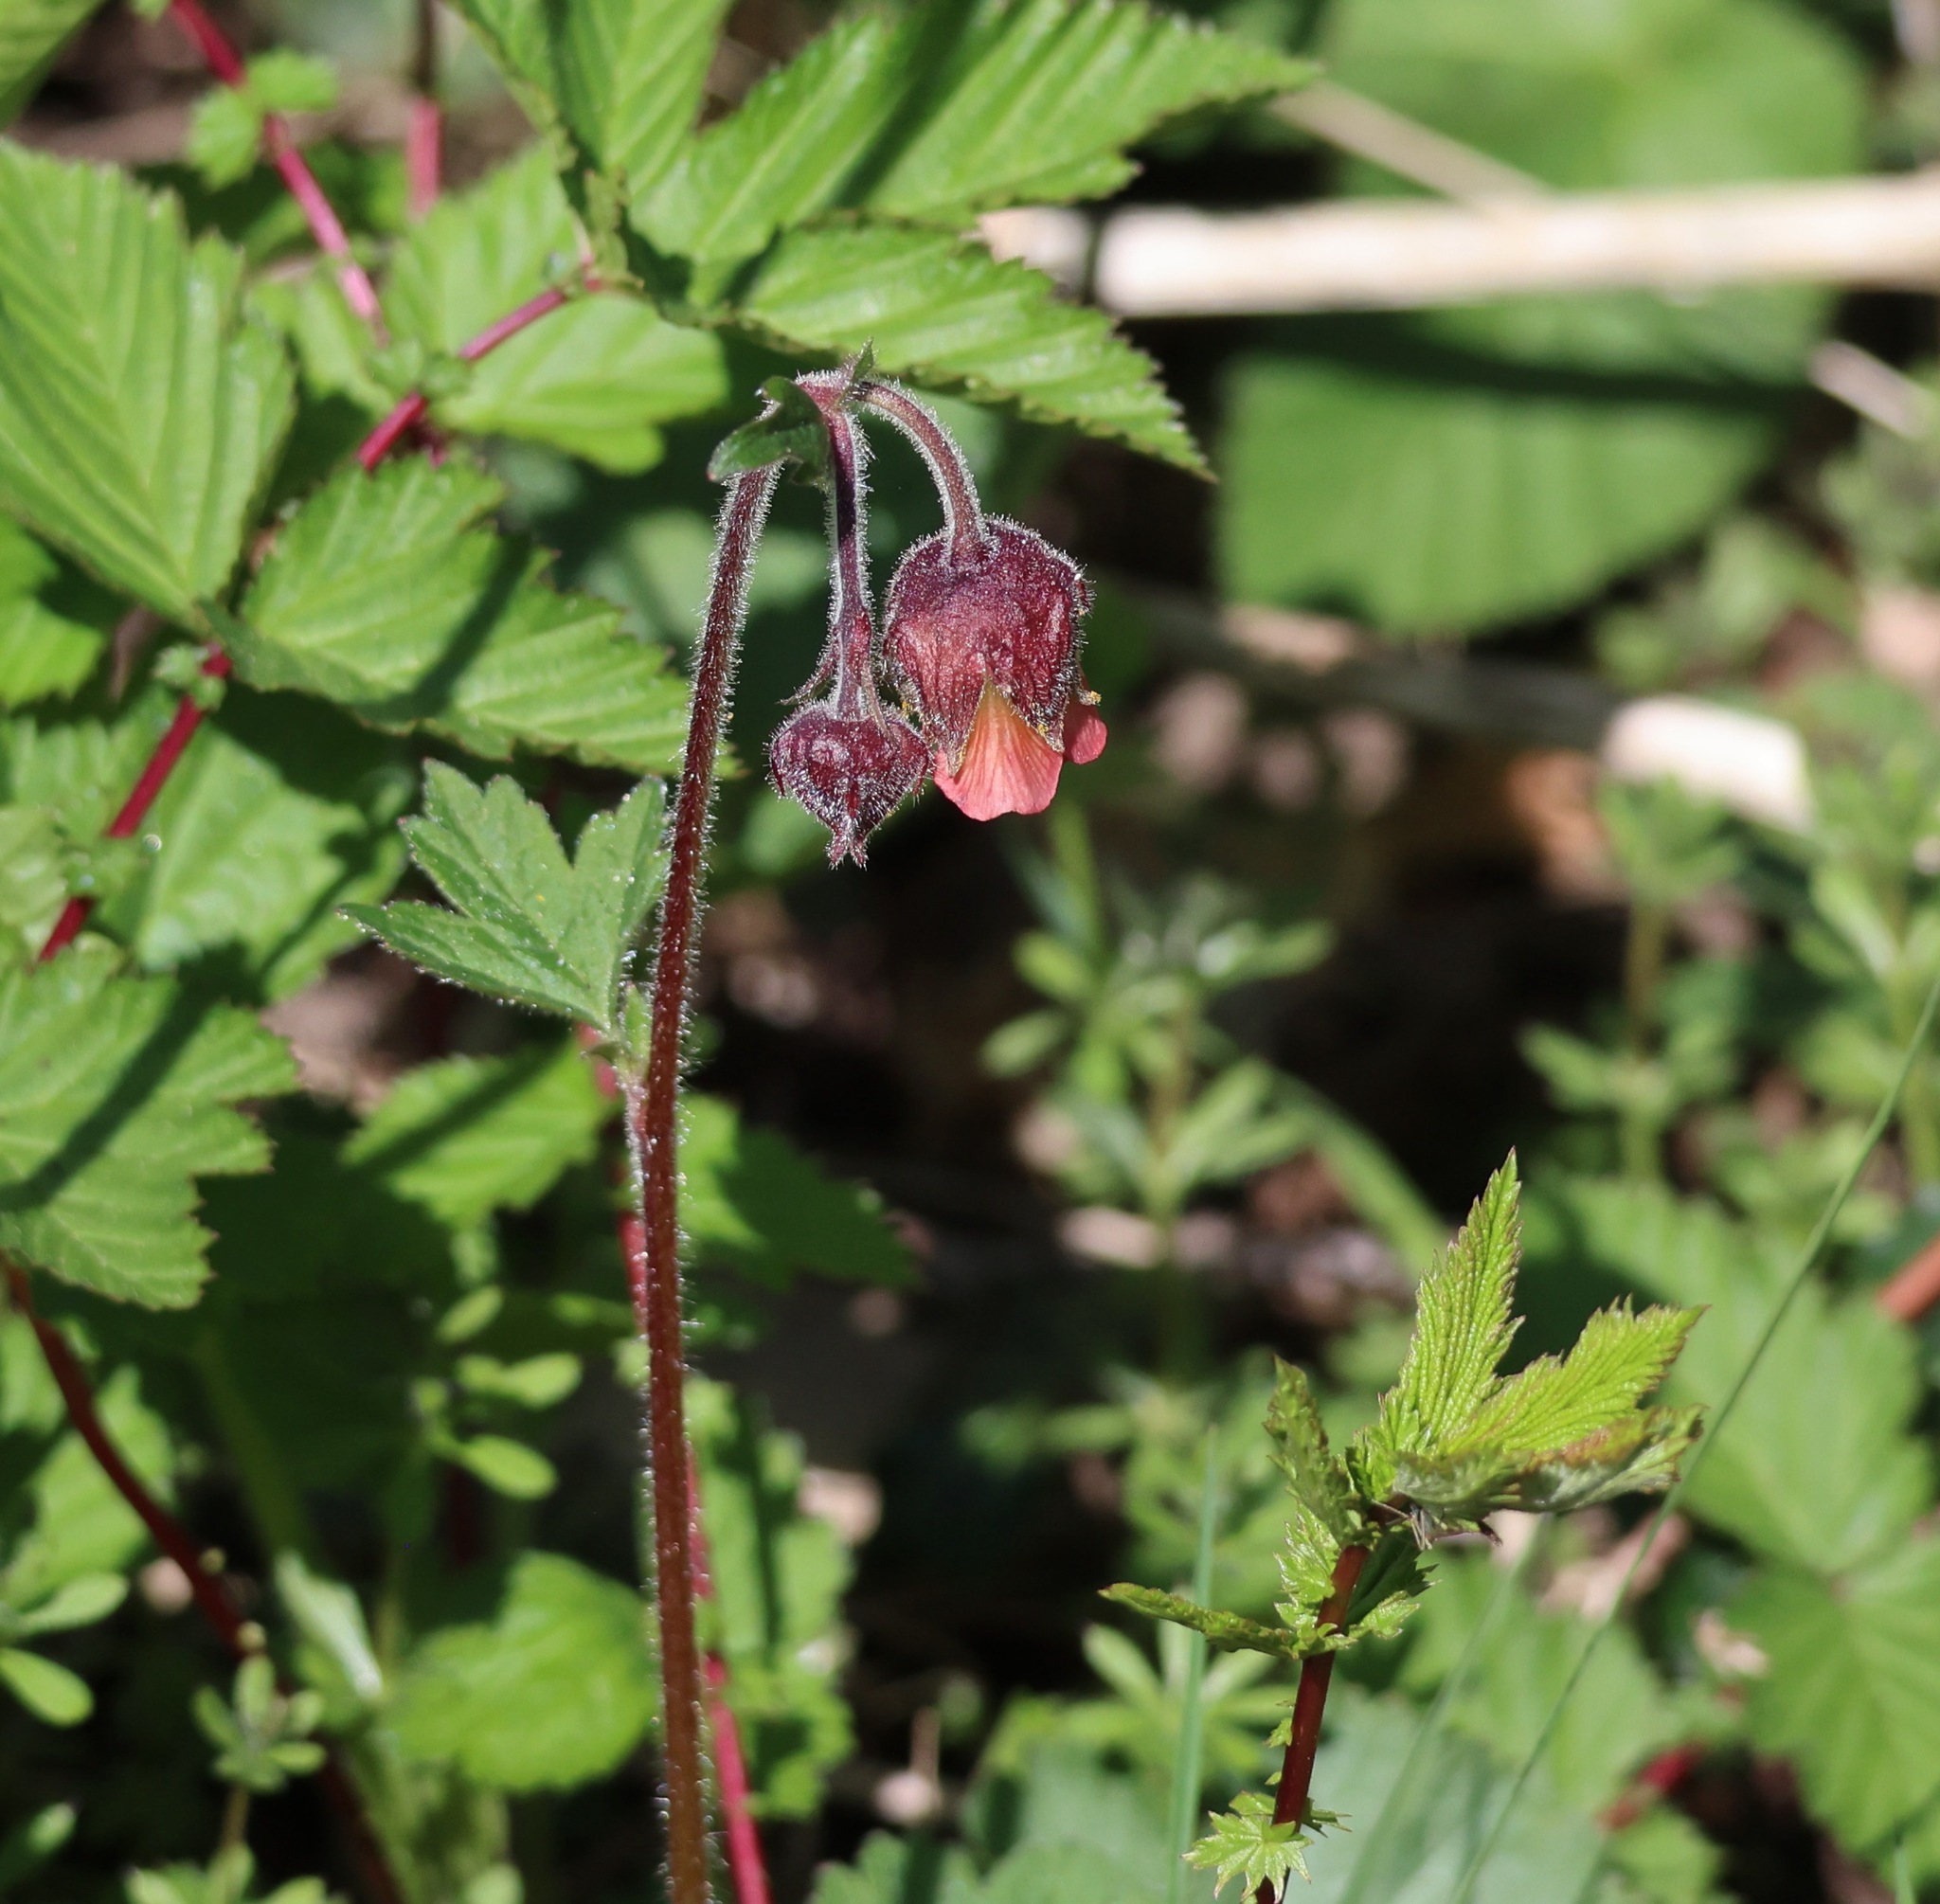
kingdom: Plantae
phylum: Tracheophyta
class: Magnoliopsida
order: Rosales
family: Rosaceae
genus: Geum
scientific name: Geum rivale
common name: Water avens
